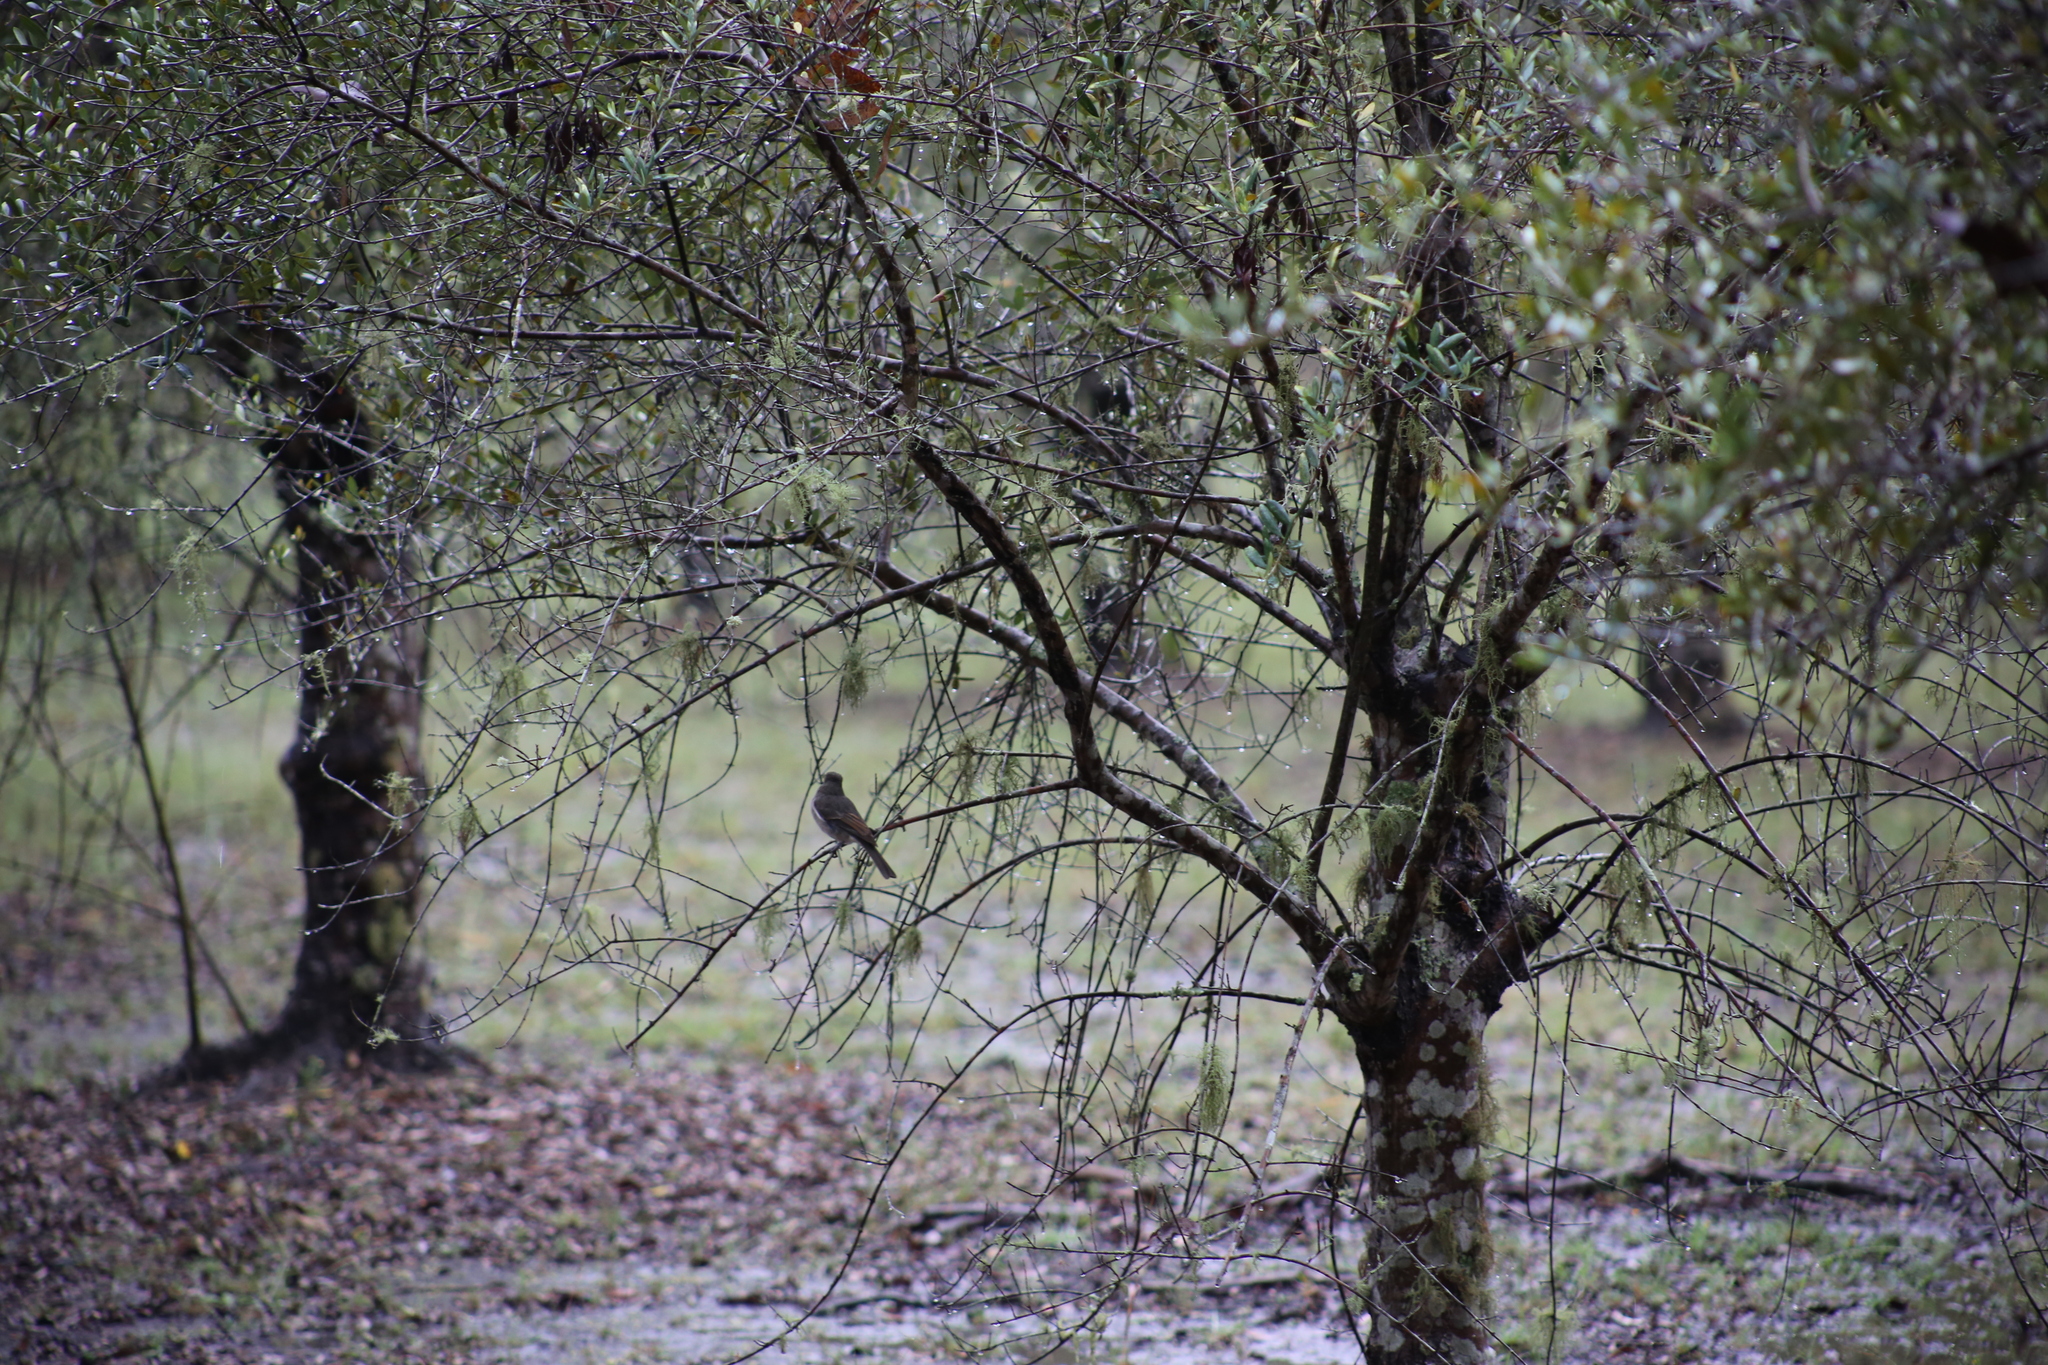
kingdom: Animalia
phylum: Chordata
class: Aves
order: Passeriformes
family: Pachycephalidae
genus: Pachycephala
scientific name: Pachycephala pectoralis
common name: Australian golden whistler
